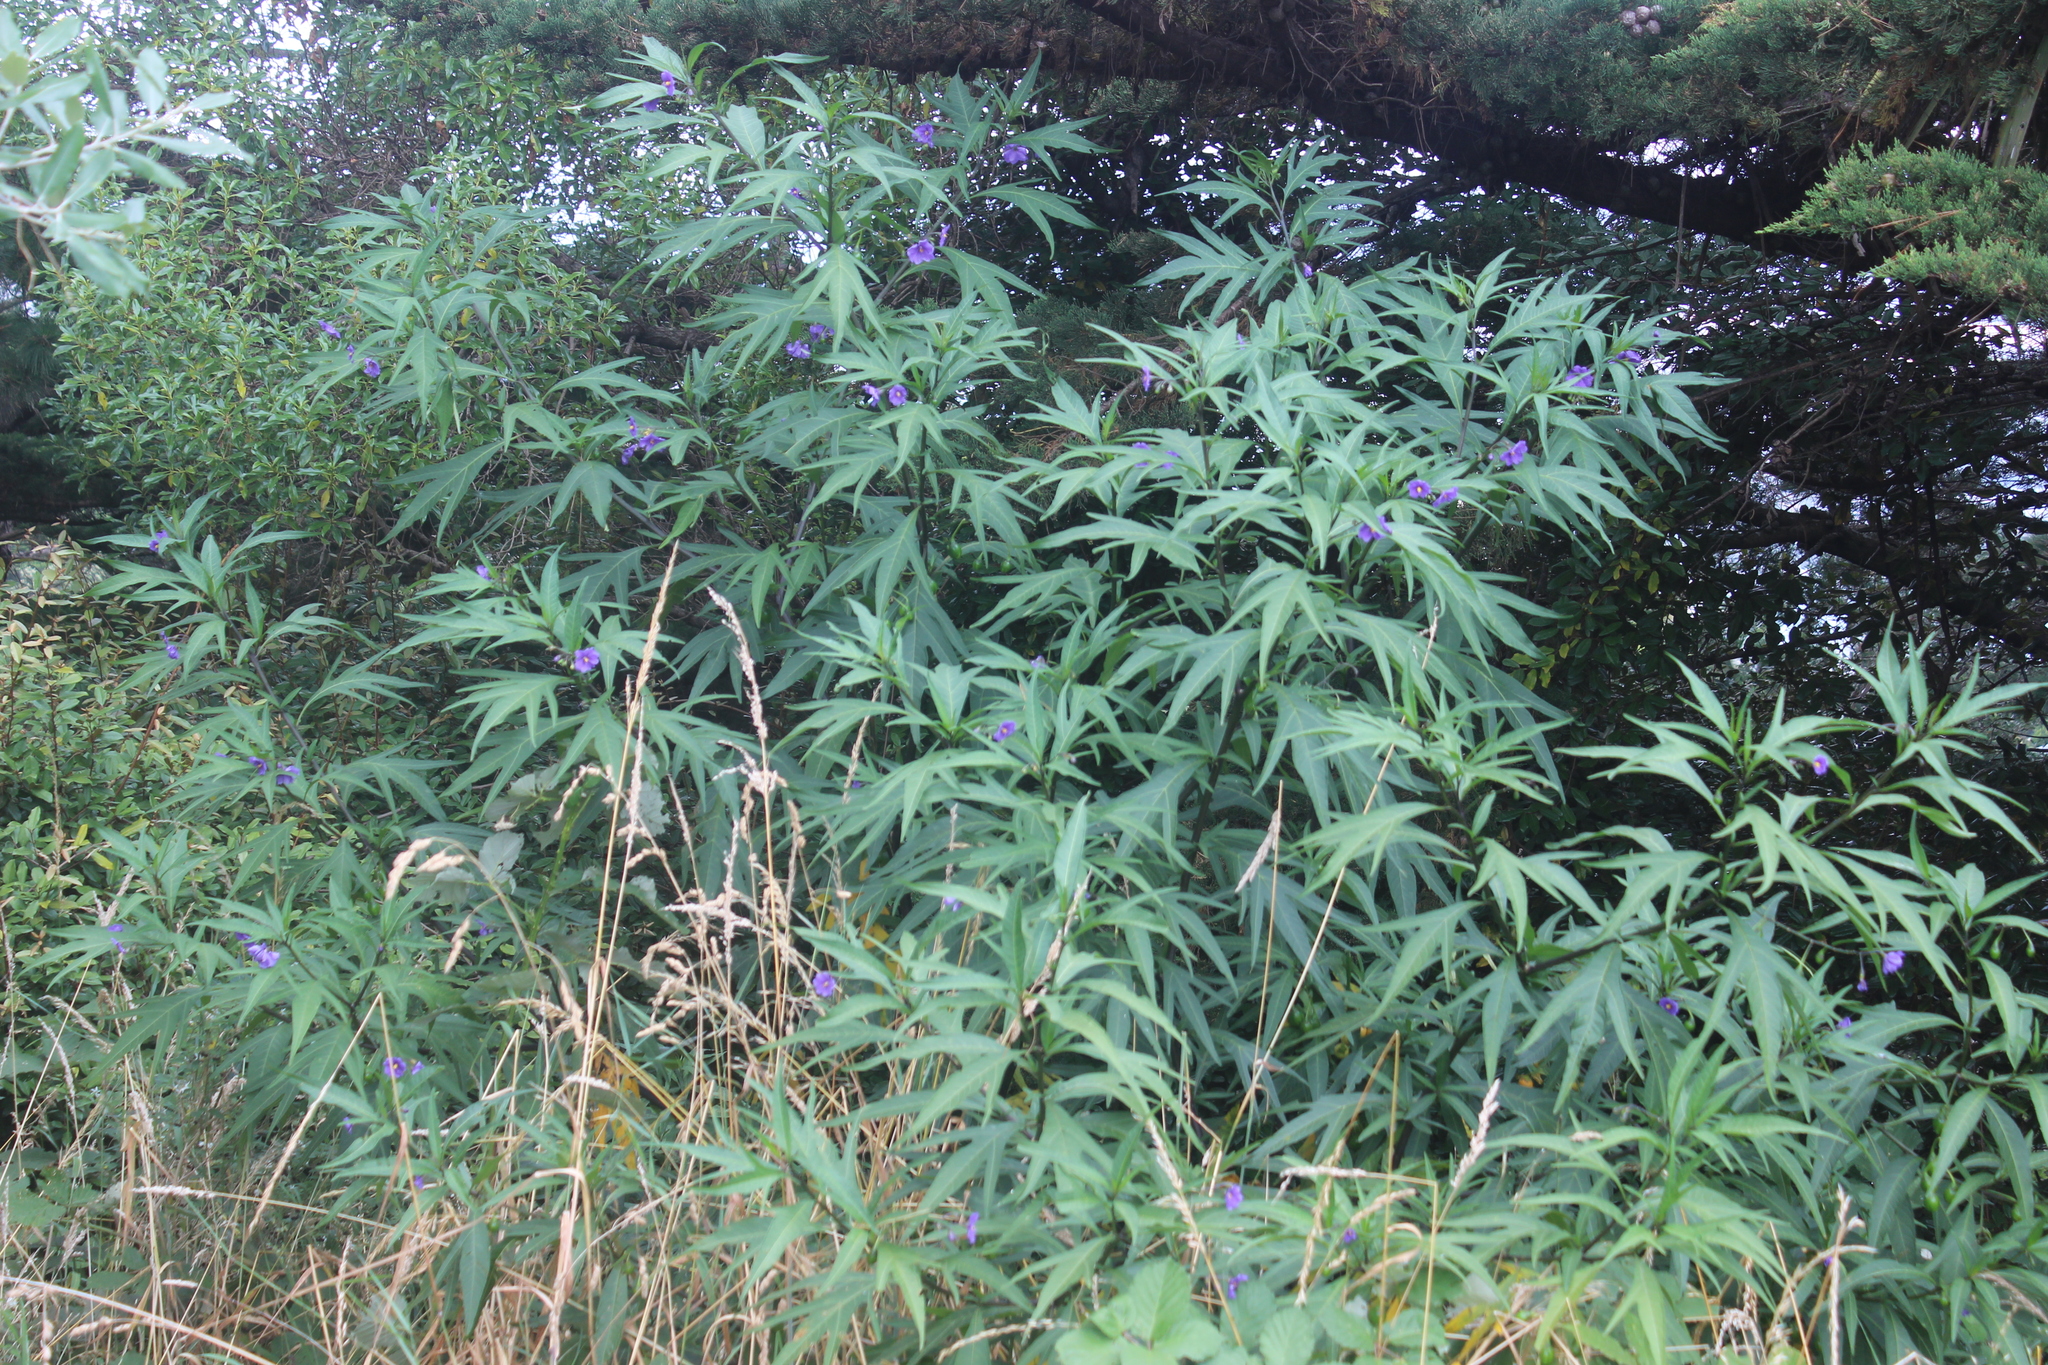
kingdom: Plantae
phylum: Tracheophyta
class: Magnoliopsida
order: Solanales
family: Solanaceae
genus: Solanum
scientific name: Solanum laciniatum
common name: Kangaroo-apple
